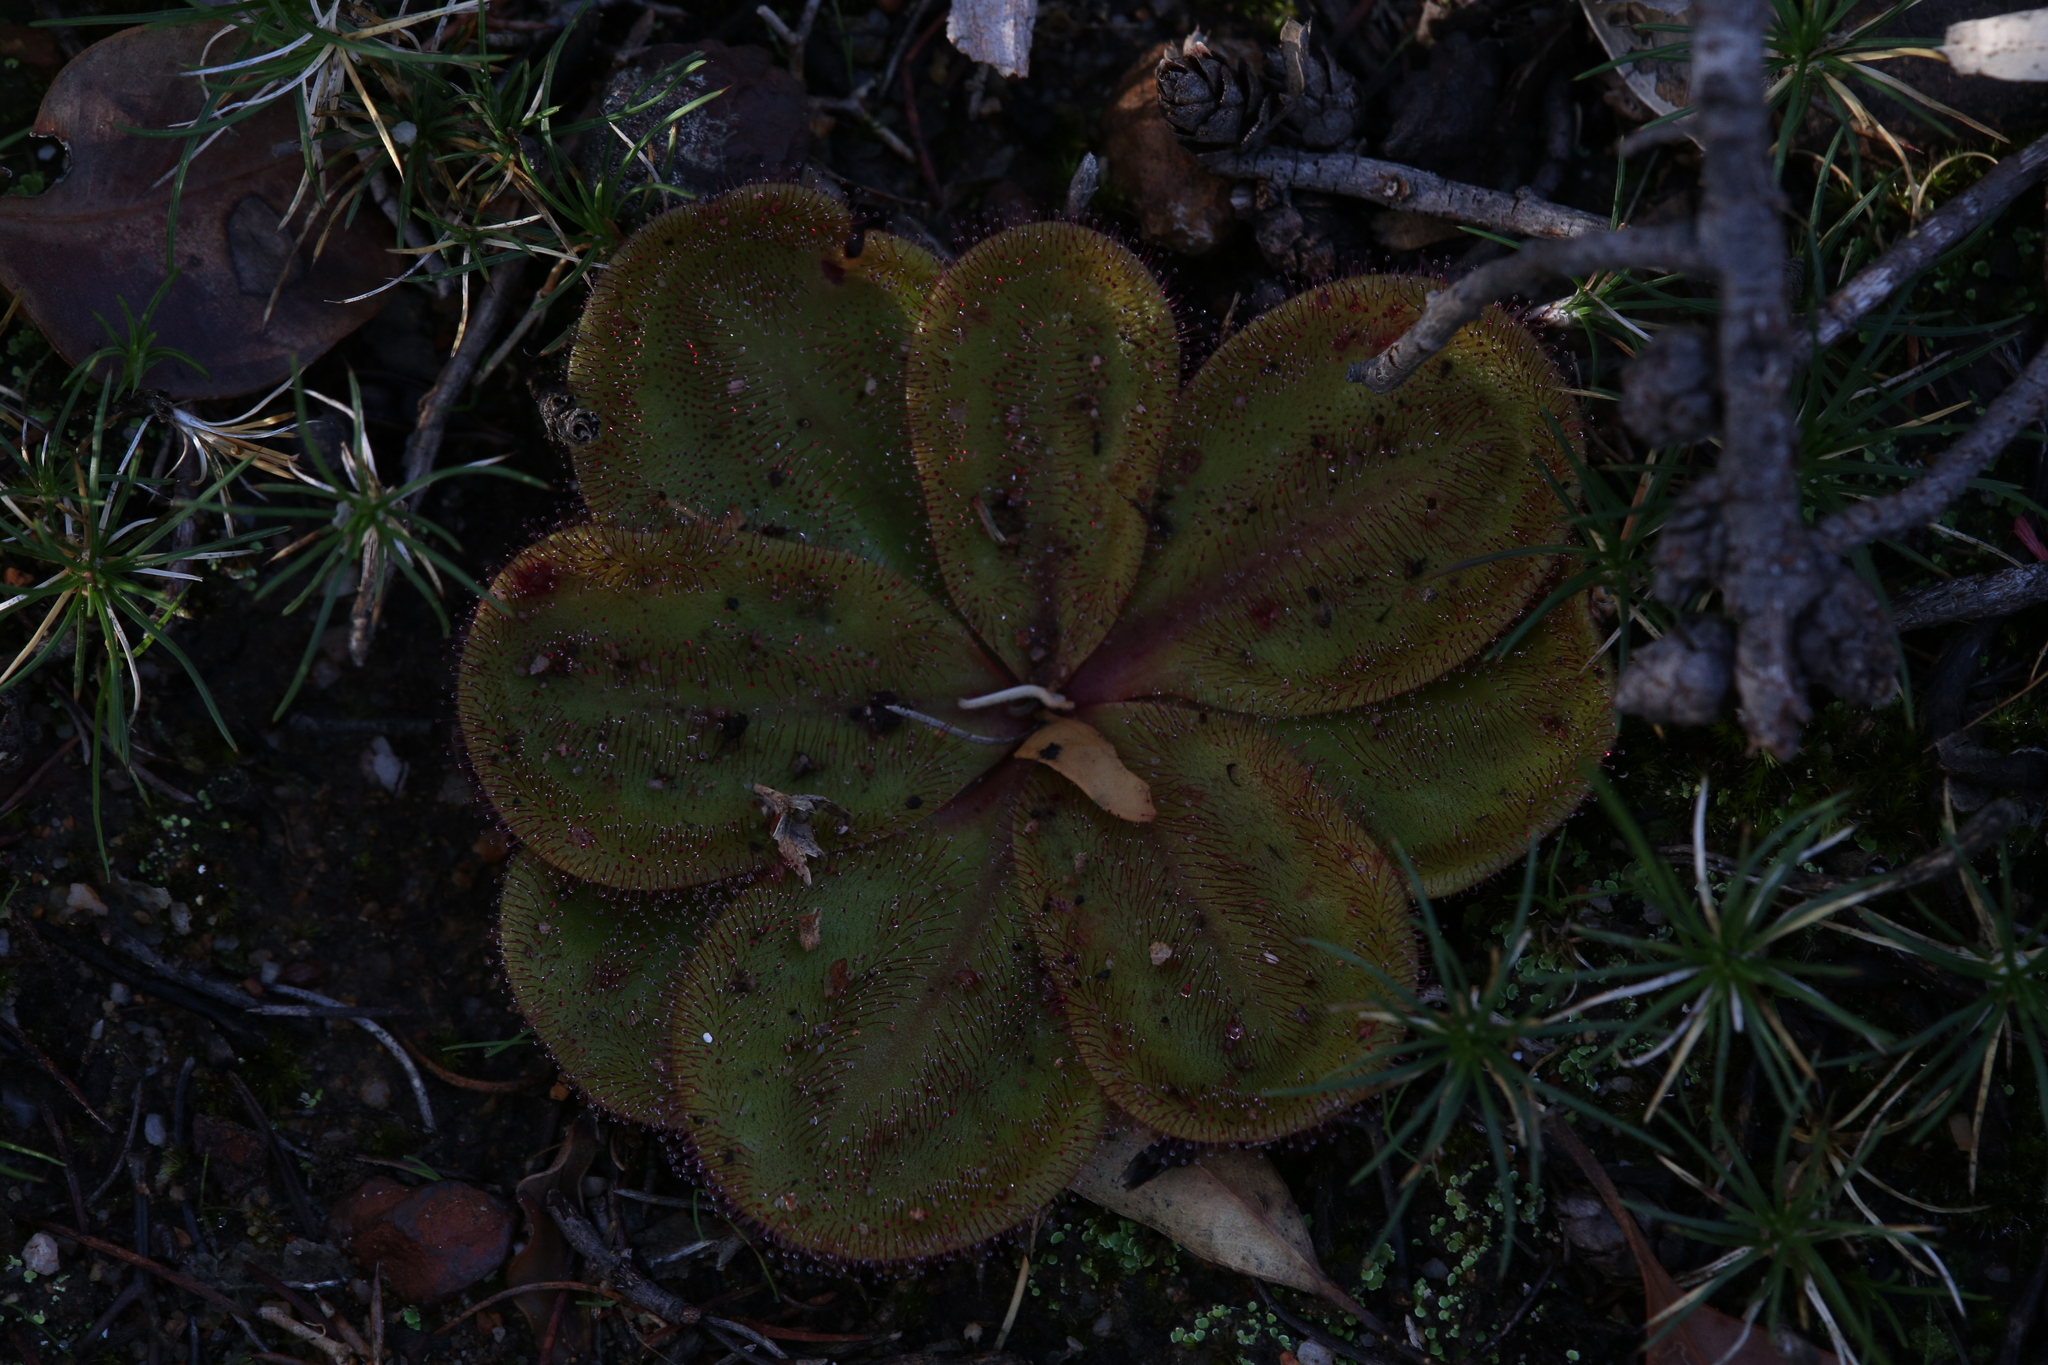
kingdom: Plantae
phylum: Tracheophyta
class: Magnoliopsida
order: Caryophyllales
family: Droseraceae
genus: Drosera
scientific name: Drosera erythrorhiza
